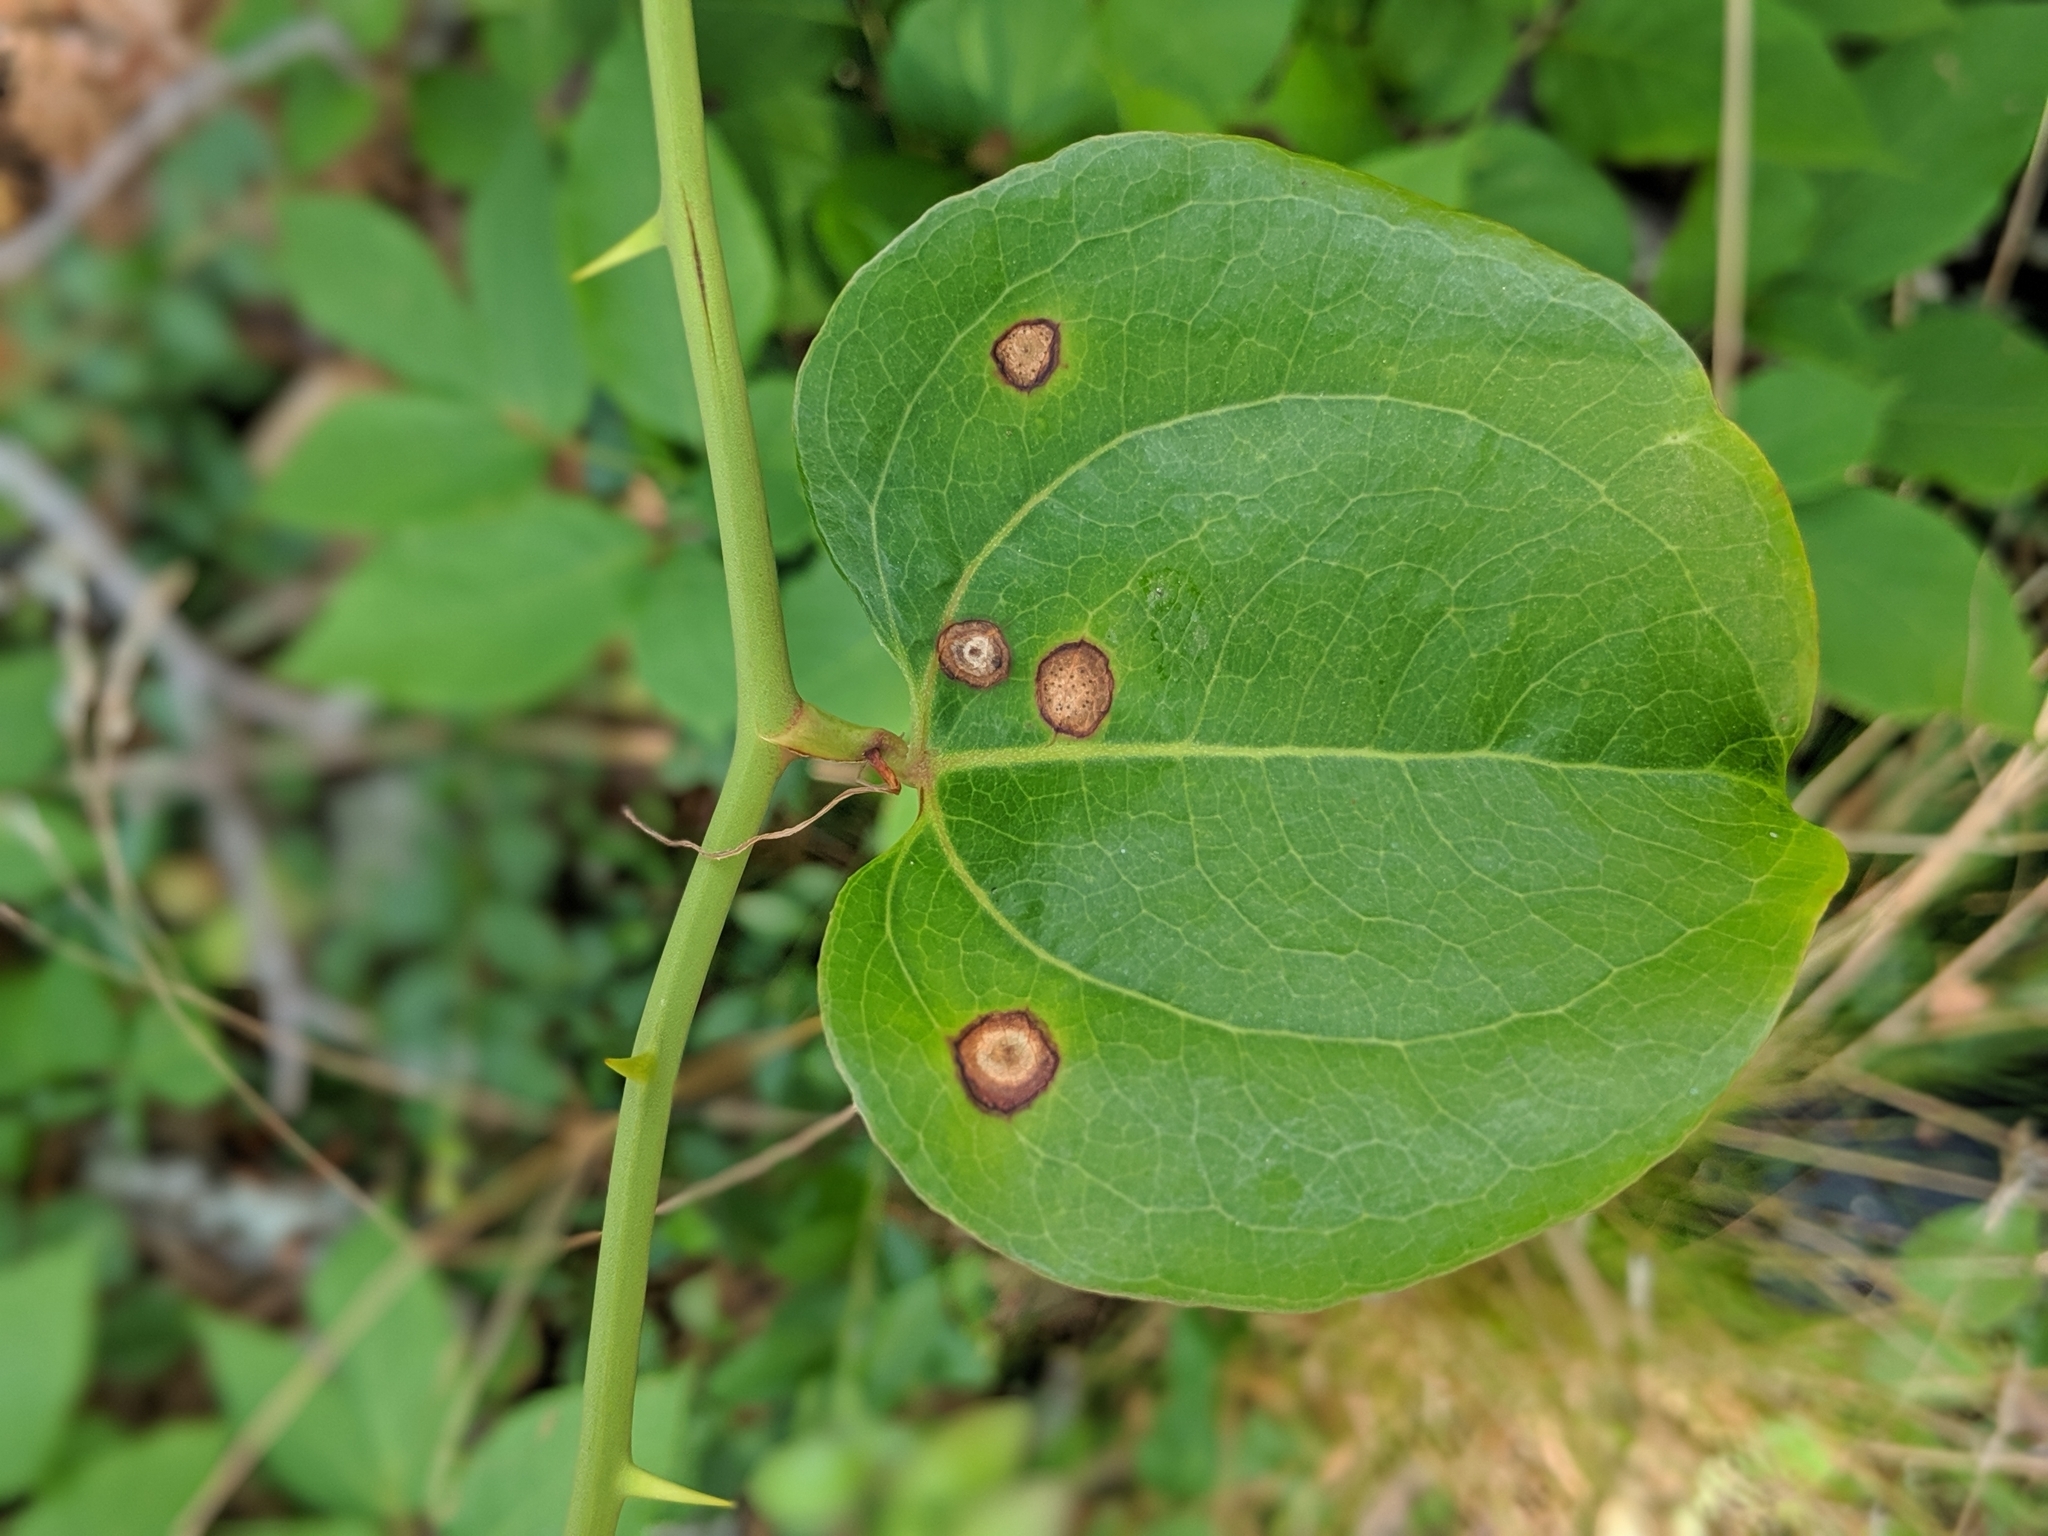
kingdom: Plantae
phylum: Tracheophyta
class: Liliopsida
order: Liliales
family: Smilacaceae
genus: Smilax
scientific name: Smilax rotundifolia
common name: Bullbriar
